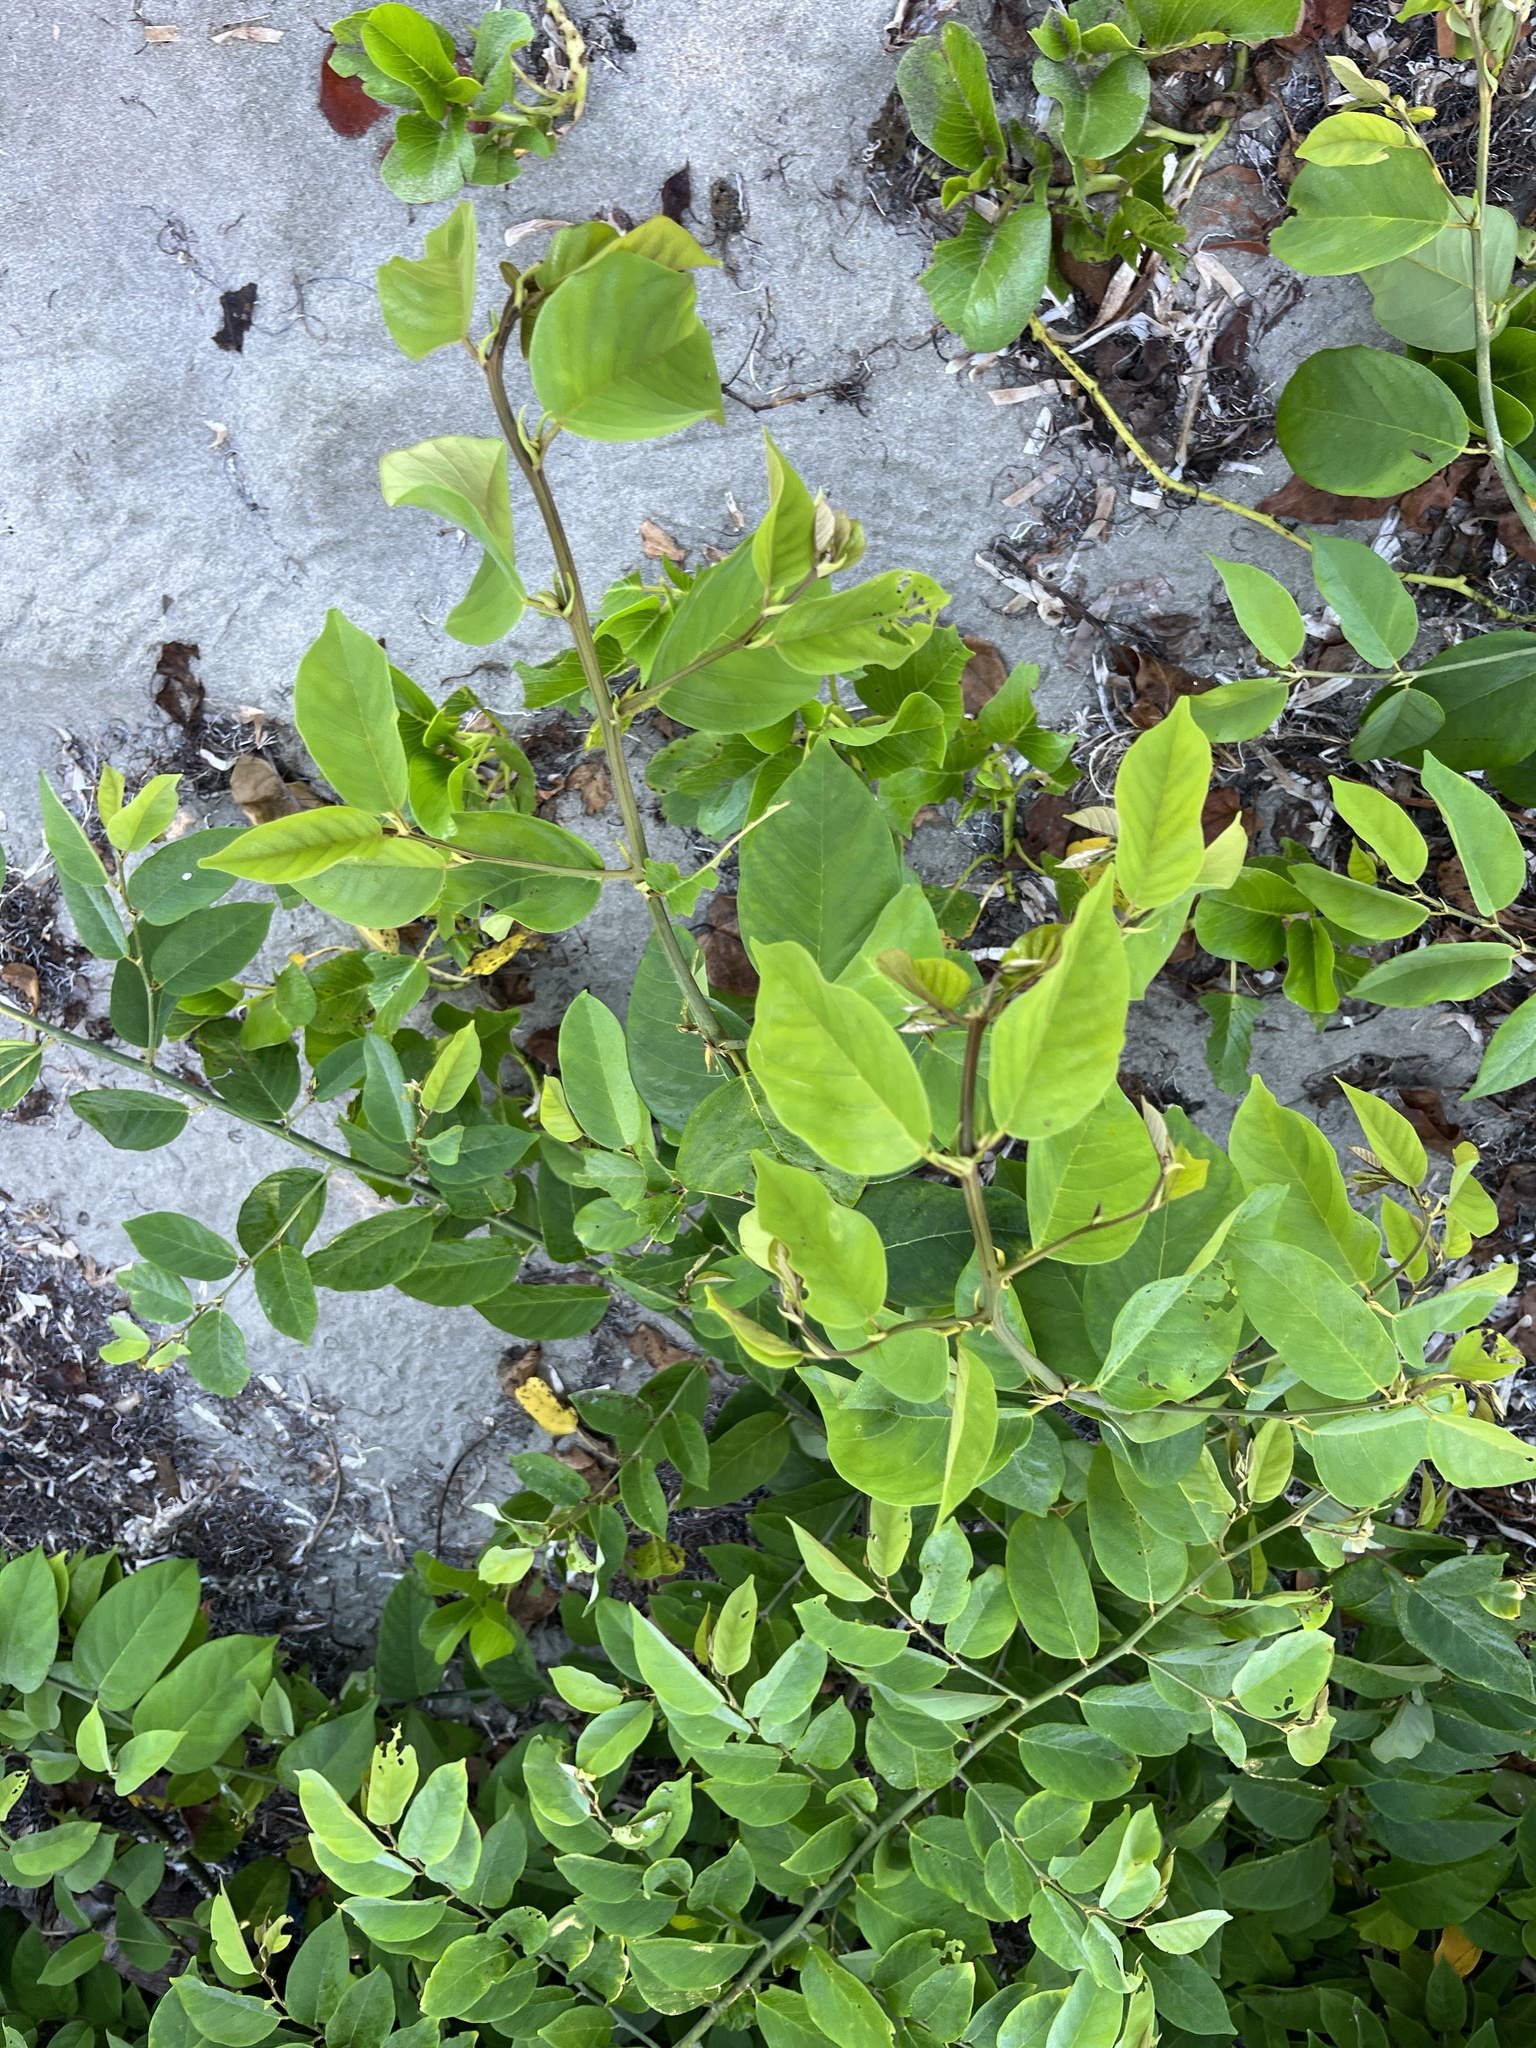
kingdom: Plantae
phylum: Tracheophyta
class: Magnoliopsida
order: Fabales
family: Fabaceae
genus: Dalbergia
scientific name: Dalbergia ecastaphyllum
